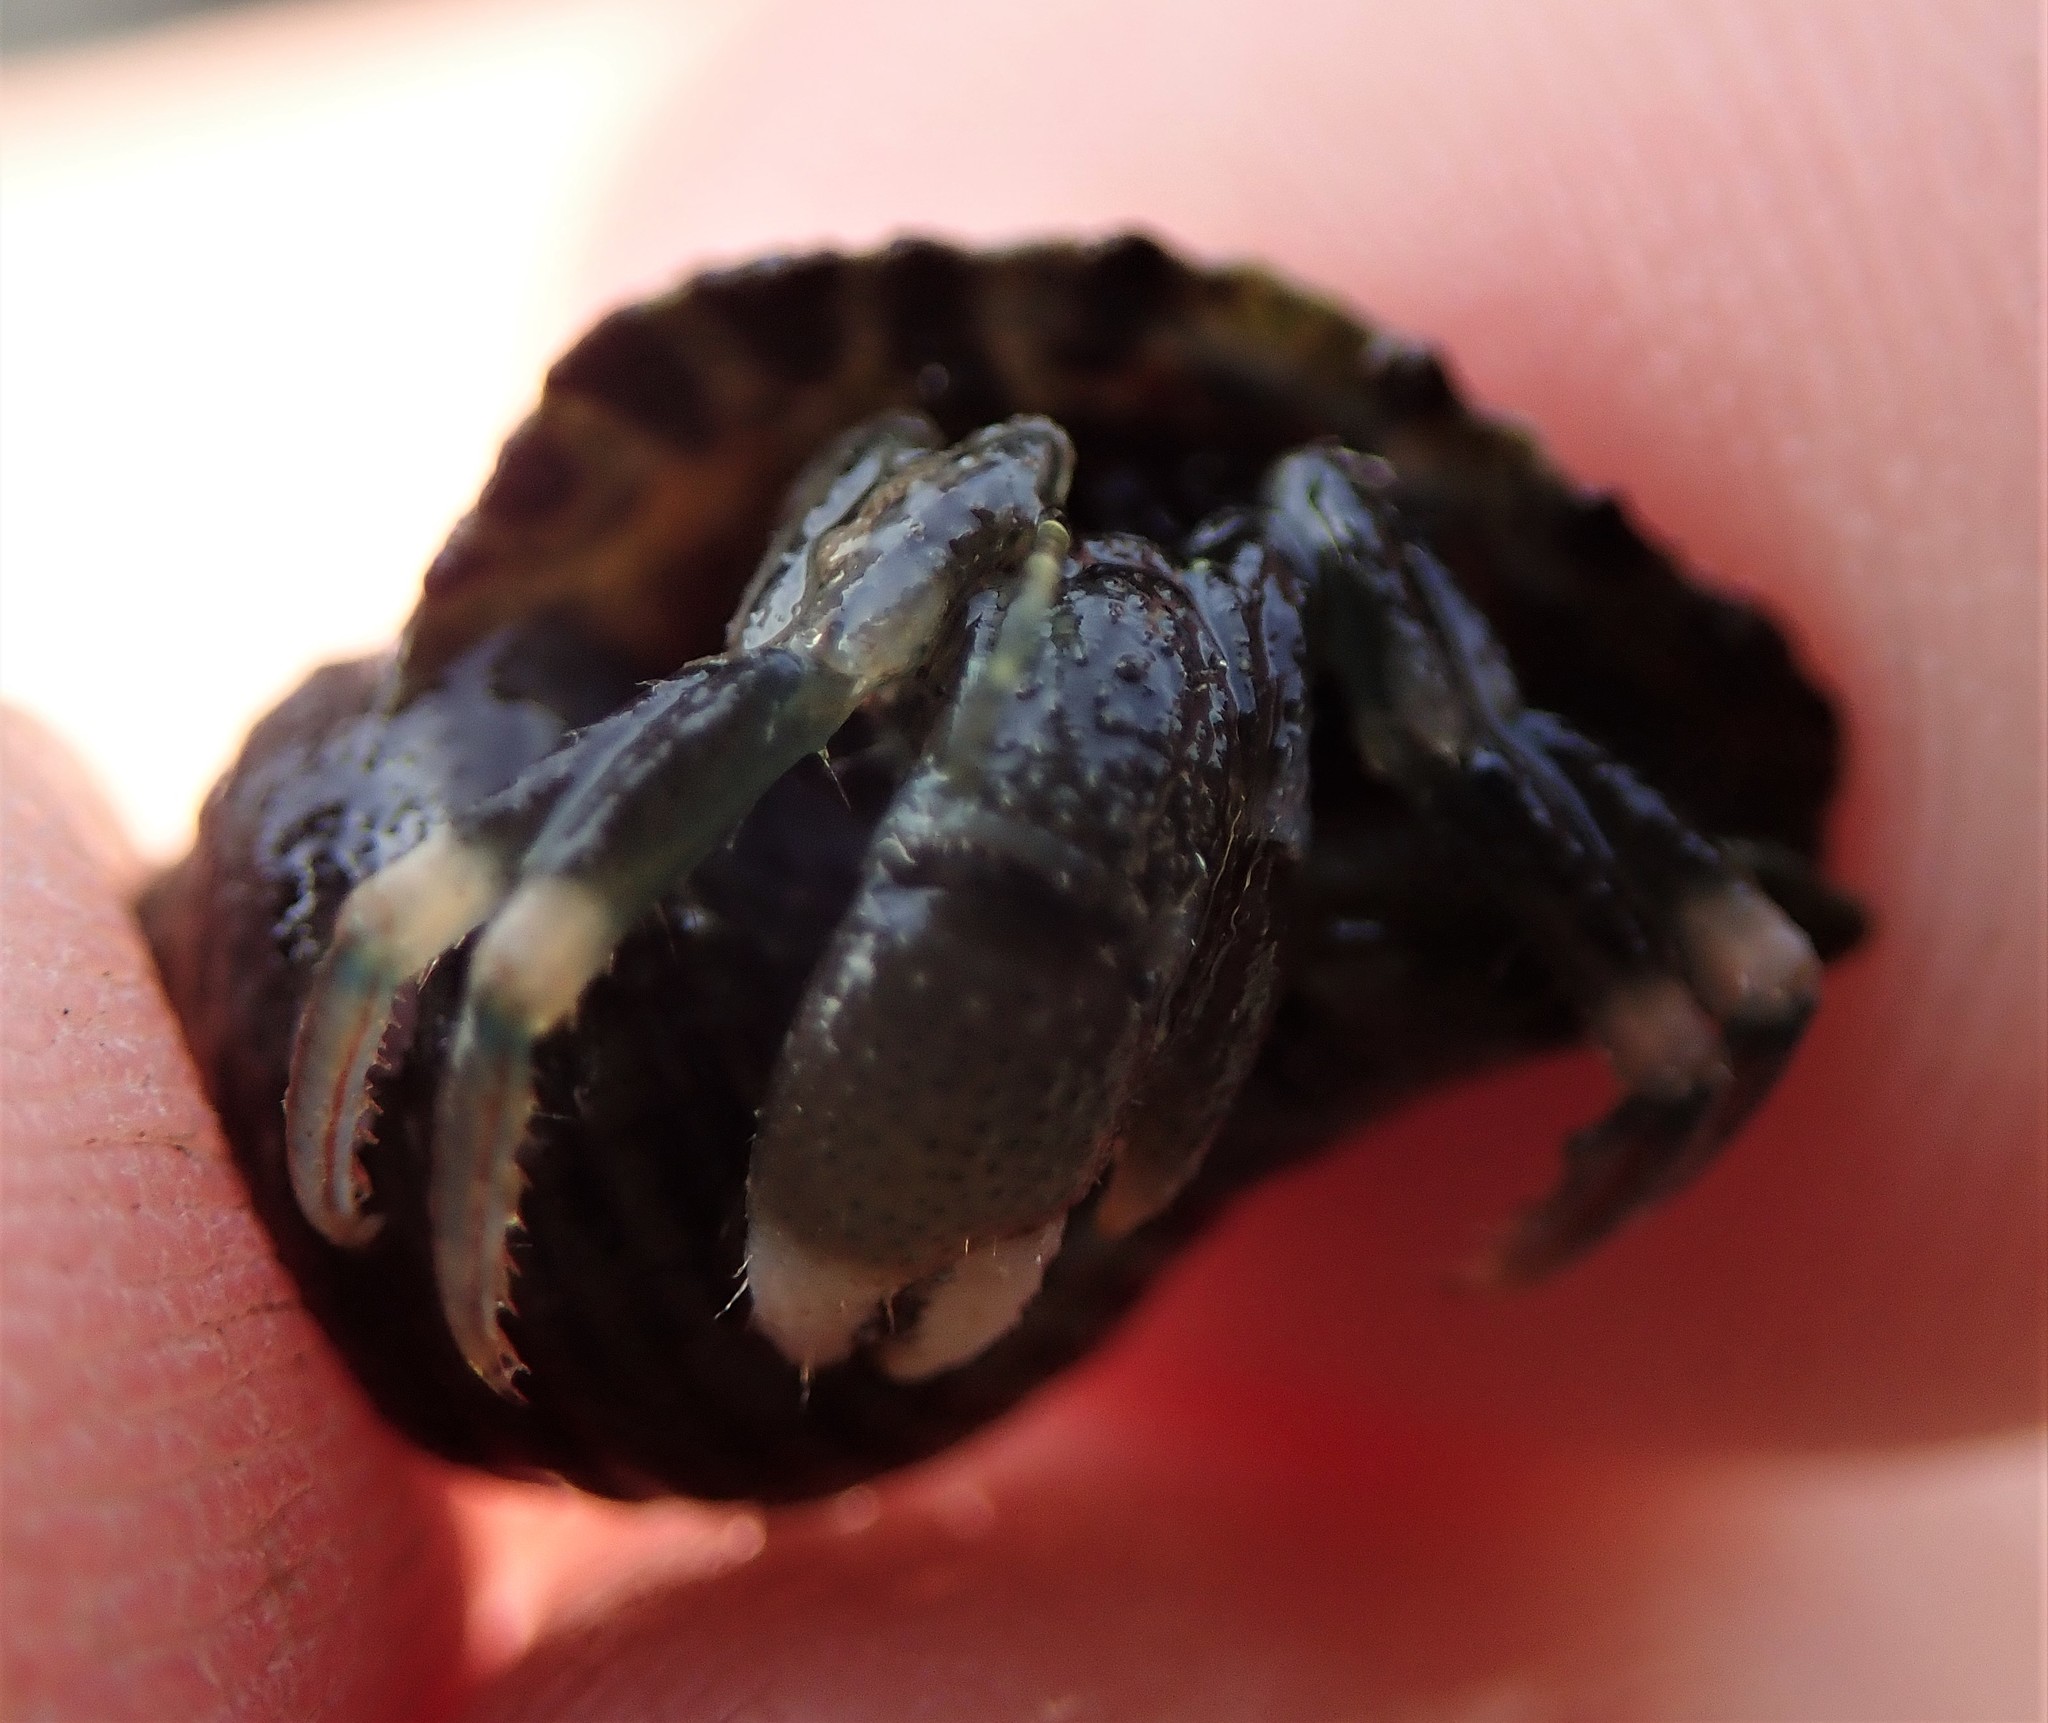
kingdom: Animalia
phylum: Arthropoda
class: Malacostraca
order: Decapoda
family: Paguridae
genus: Pagurus
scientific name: Pagurus hirsutiusculus
